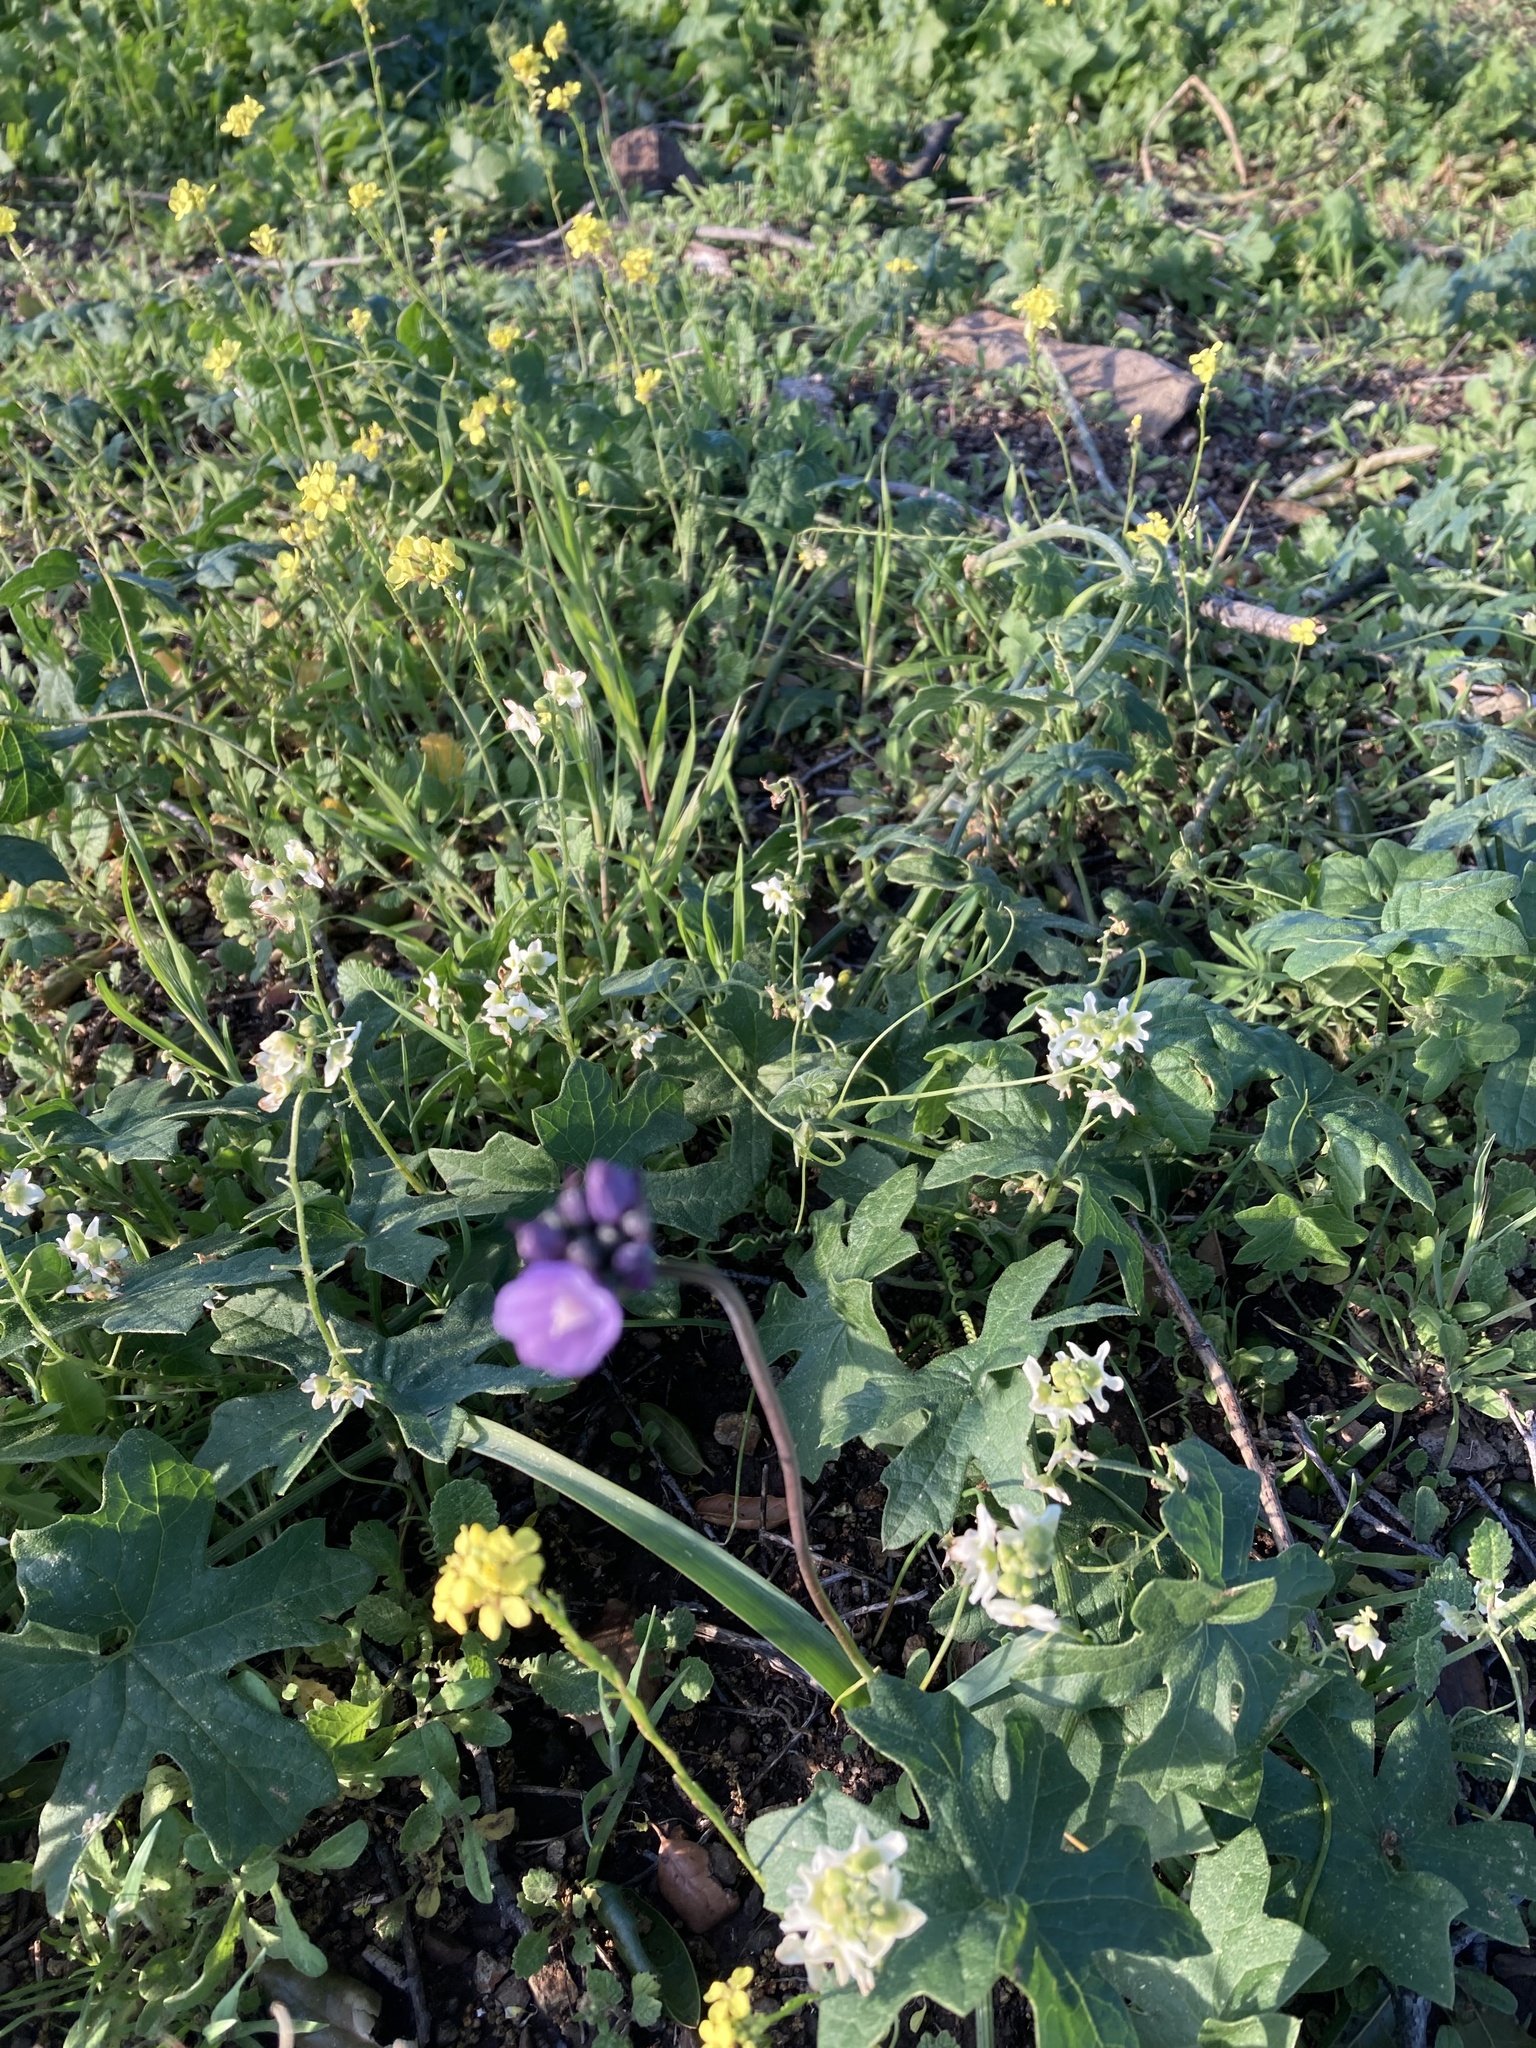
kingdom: Plantae
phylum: Tracheophyta
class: Liliopsida
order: Asparagales
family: Asparagaceae
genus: Dipterostemon
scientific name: Dipterostemon capitatus
